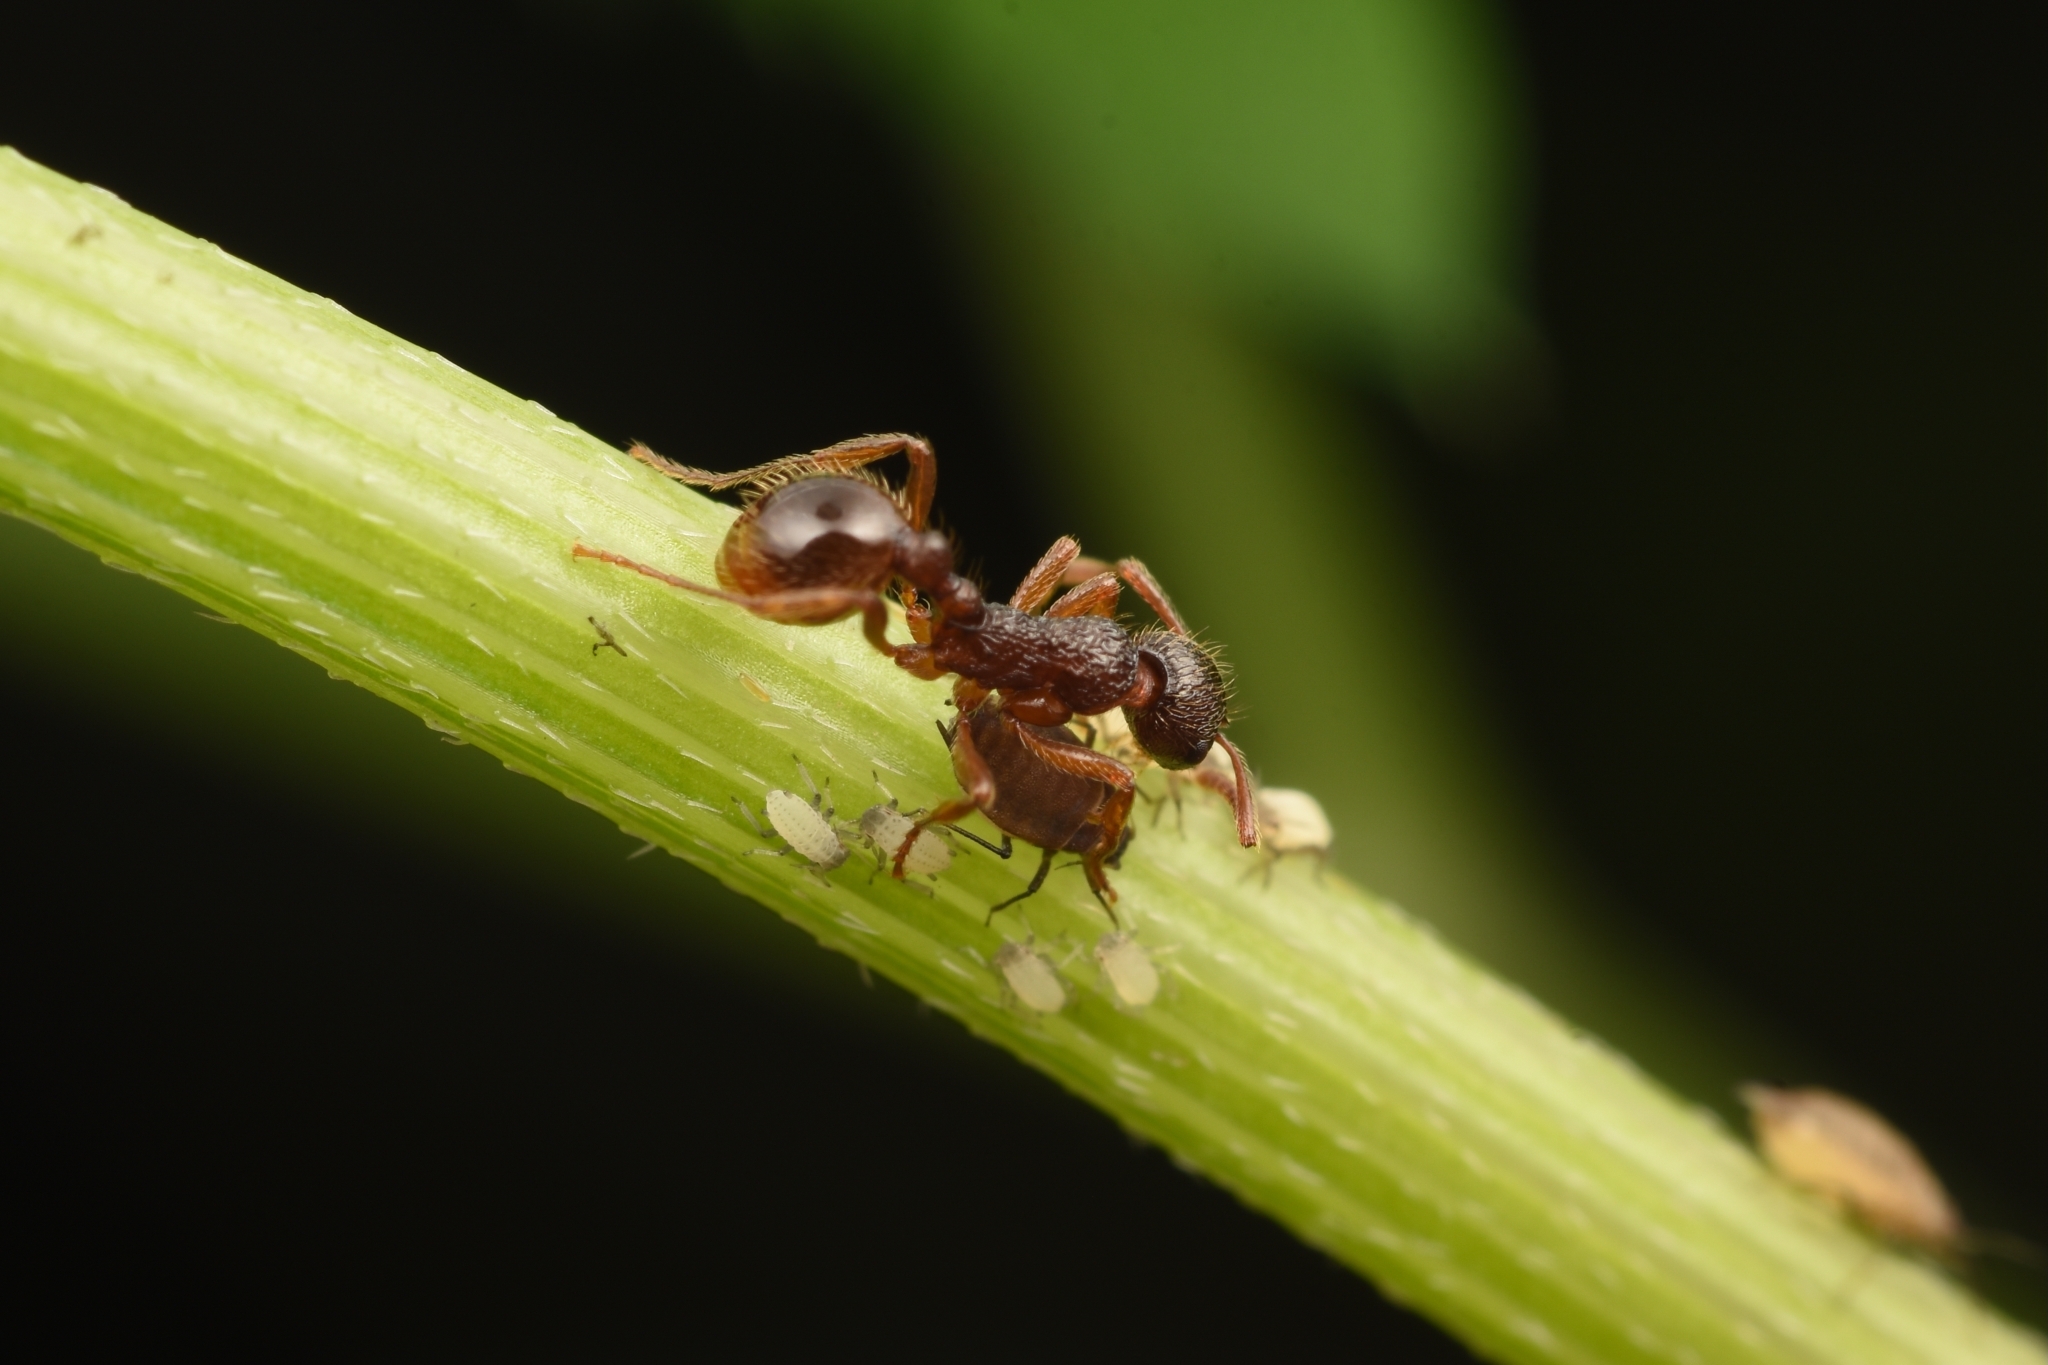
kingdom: Animalia
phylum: Arthropoda
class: Insecta
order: Hymenoptera
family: Formicidae
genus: Myrmica
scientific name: Myrmica kotokui
